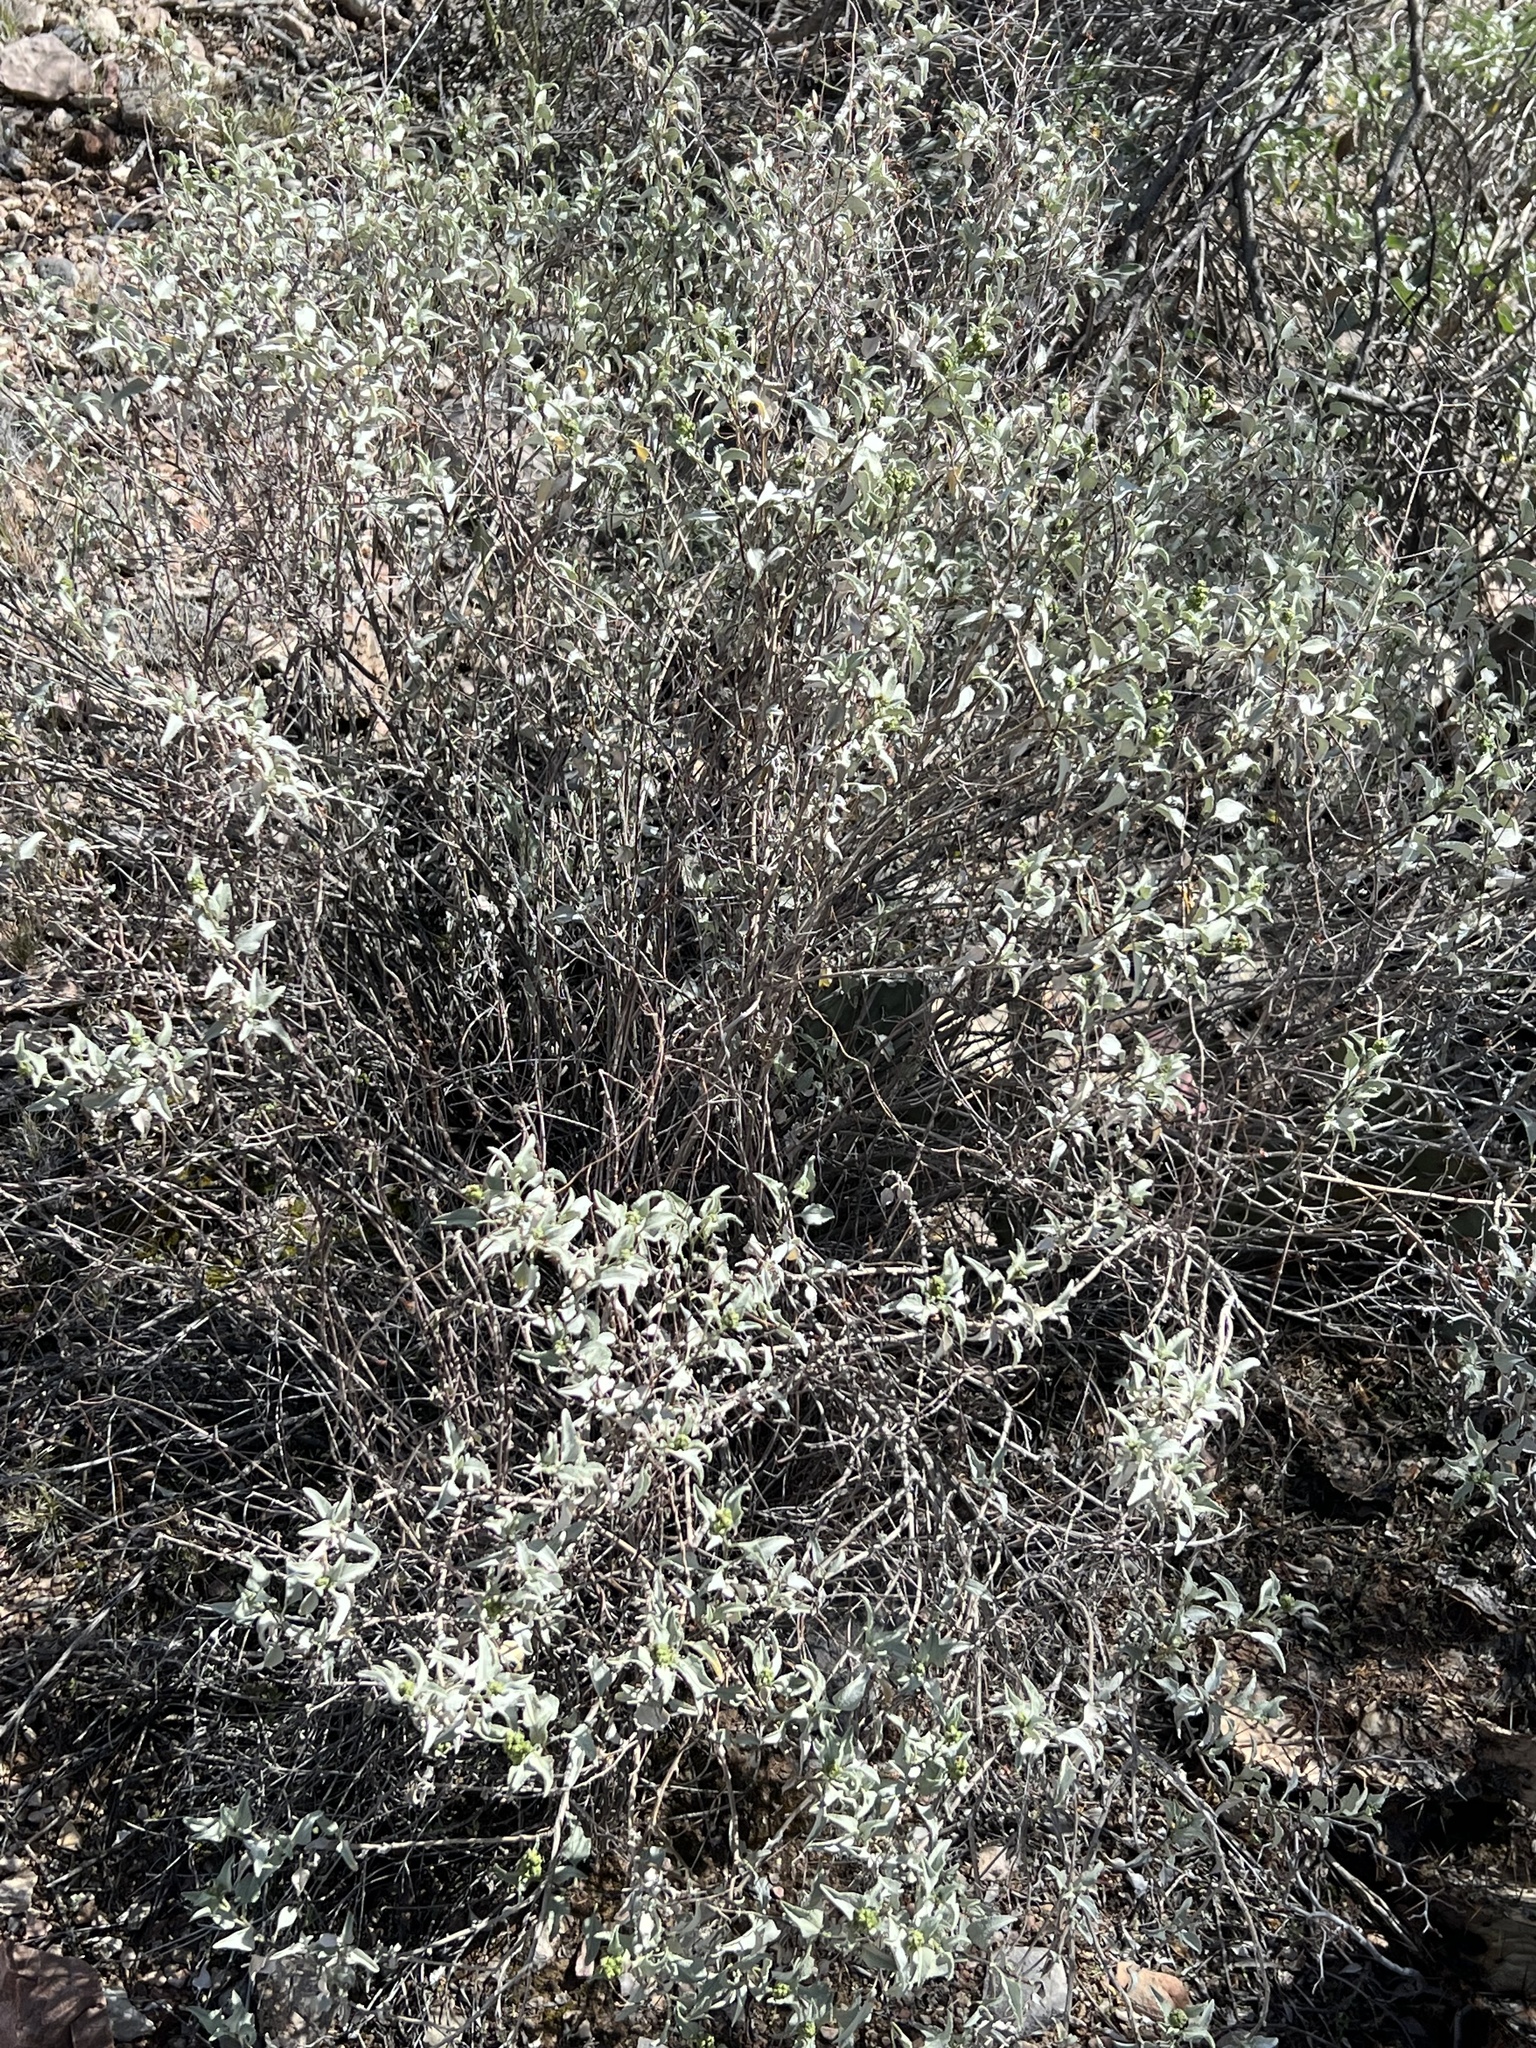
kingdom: Plantae
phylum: Tracheophyta
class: Magnoliopsida
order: Asterales
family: Asteraceae
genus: Ambrosia
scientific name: Ambrosia deltoidea
